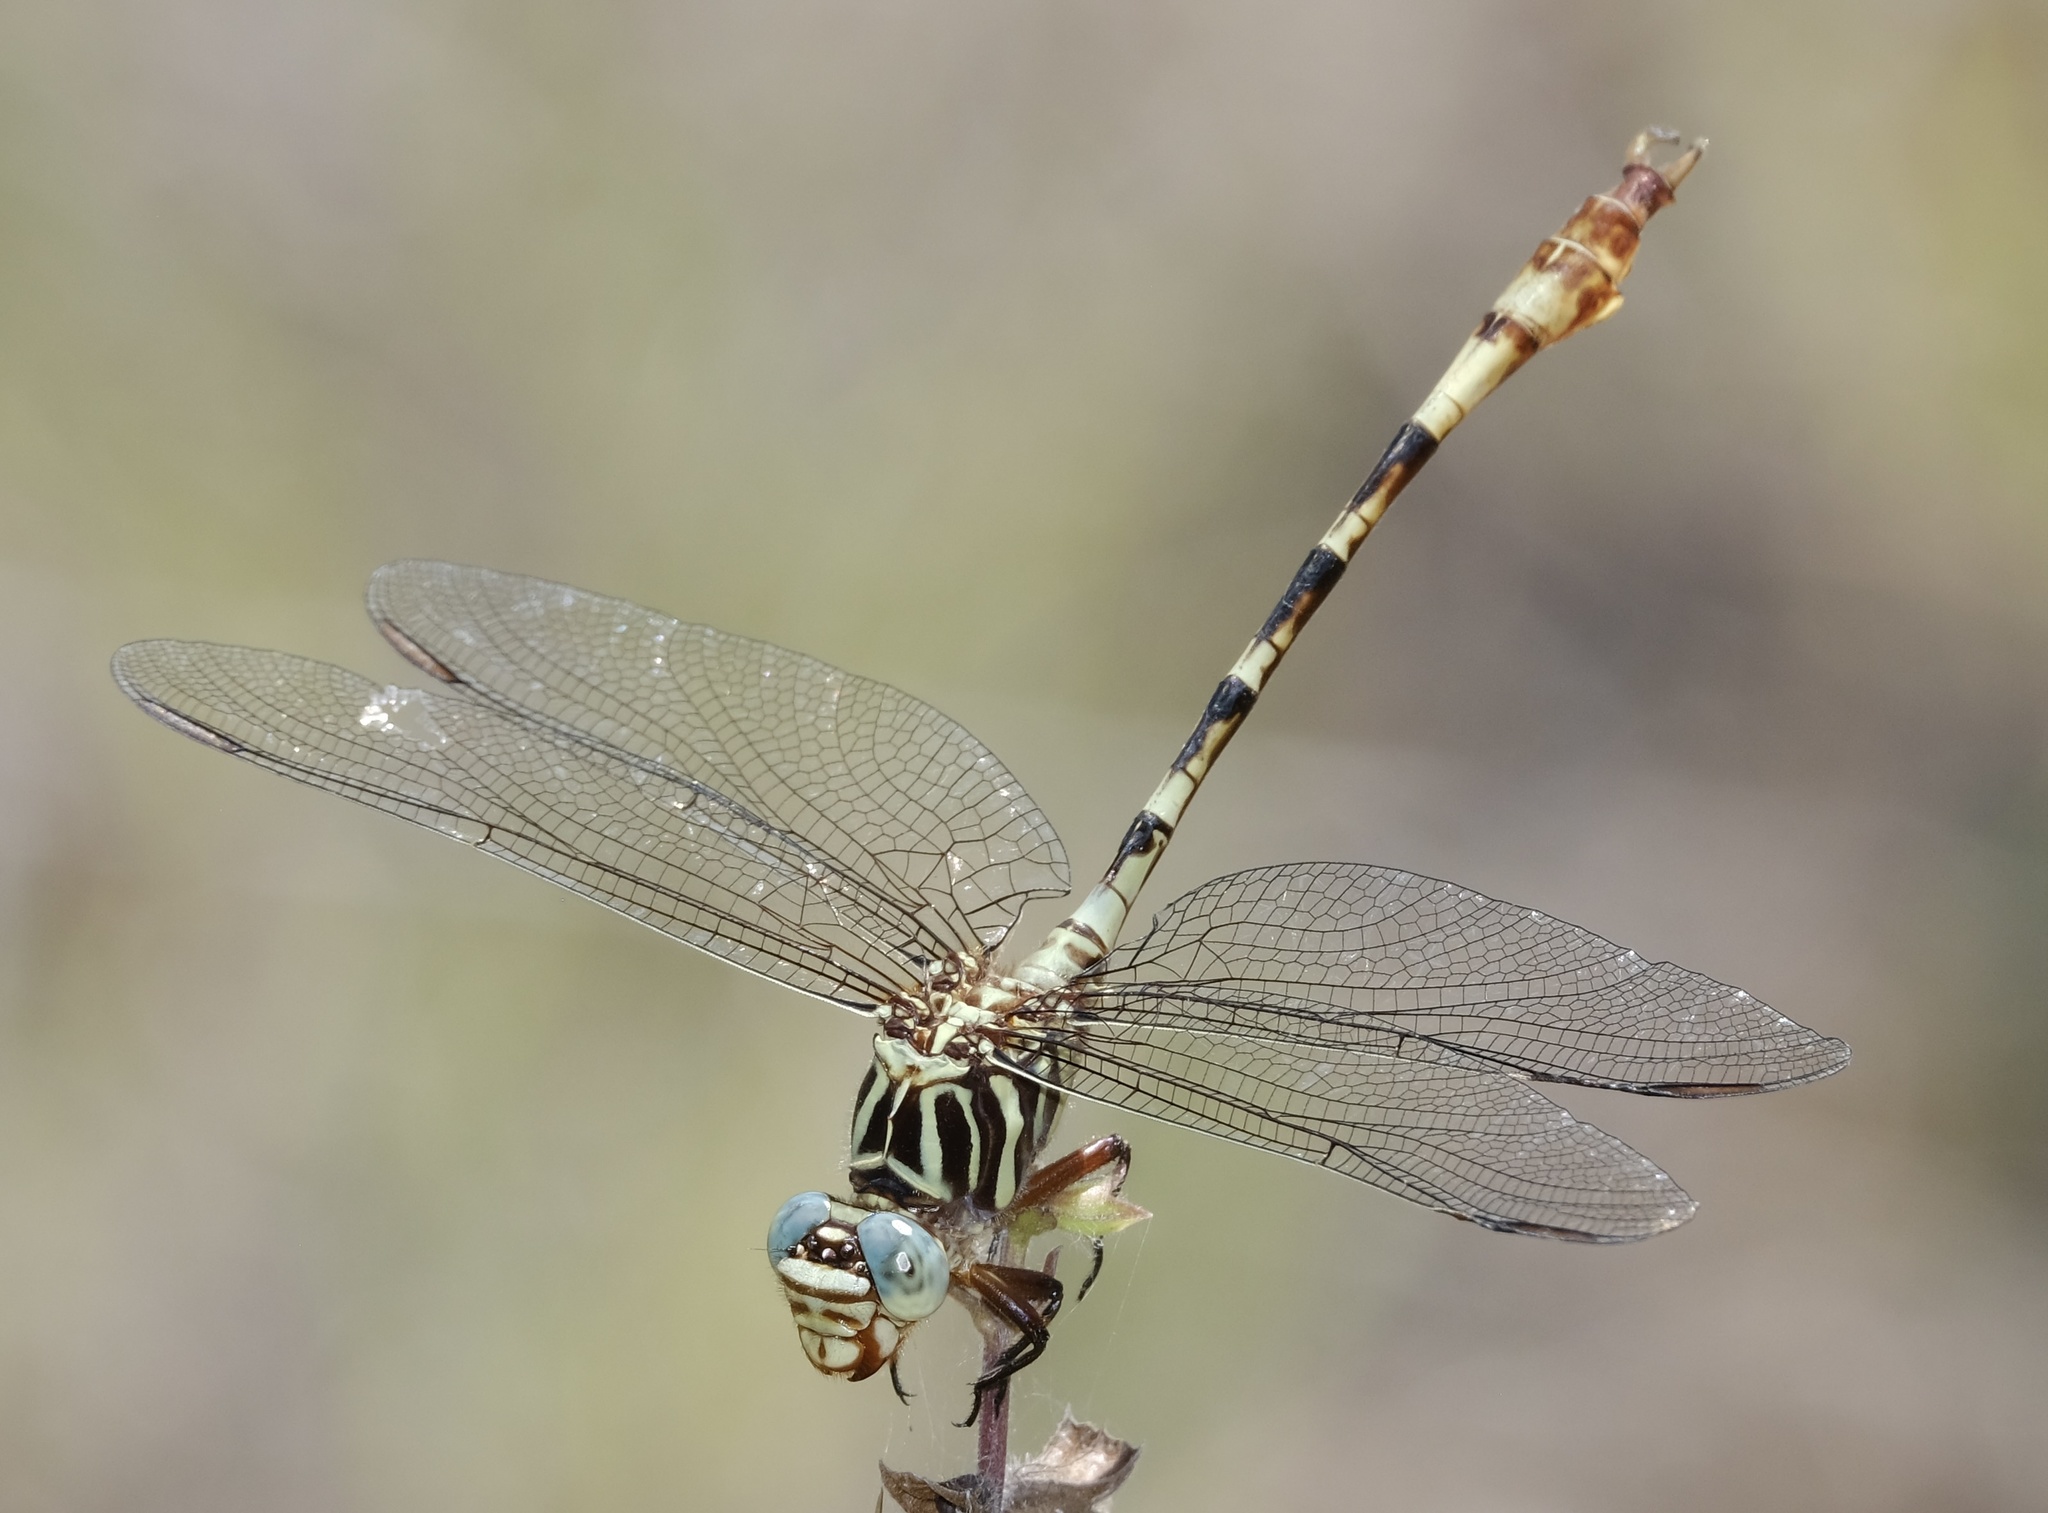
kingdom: Animalia
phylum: Arthropoda
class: Insecta
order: Odonata
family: Gomphidae
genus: Aphylla
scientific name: Aphylla angustifolia
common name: Broad-striped forceptail
